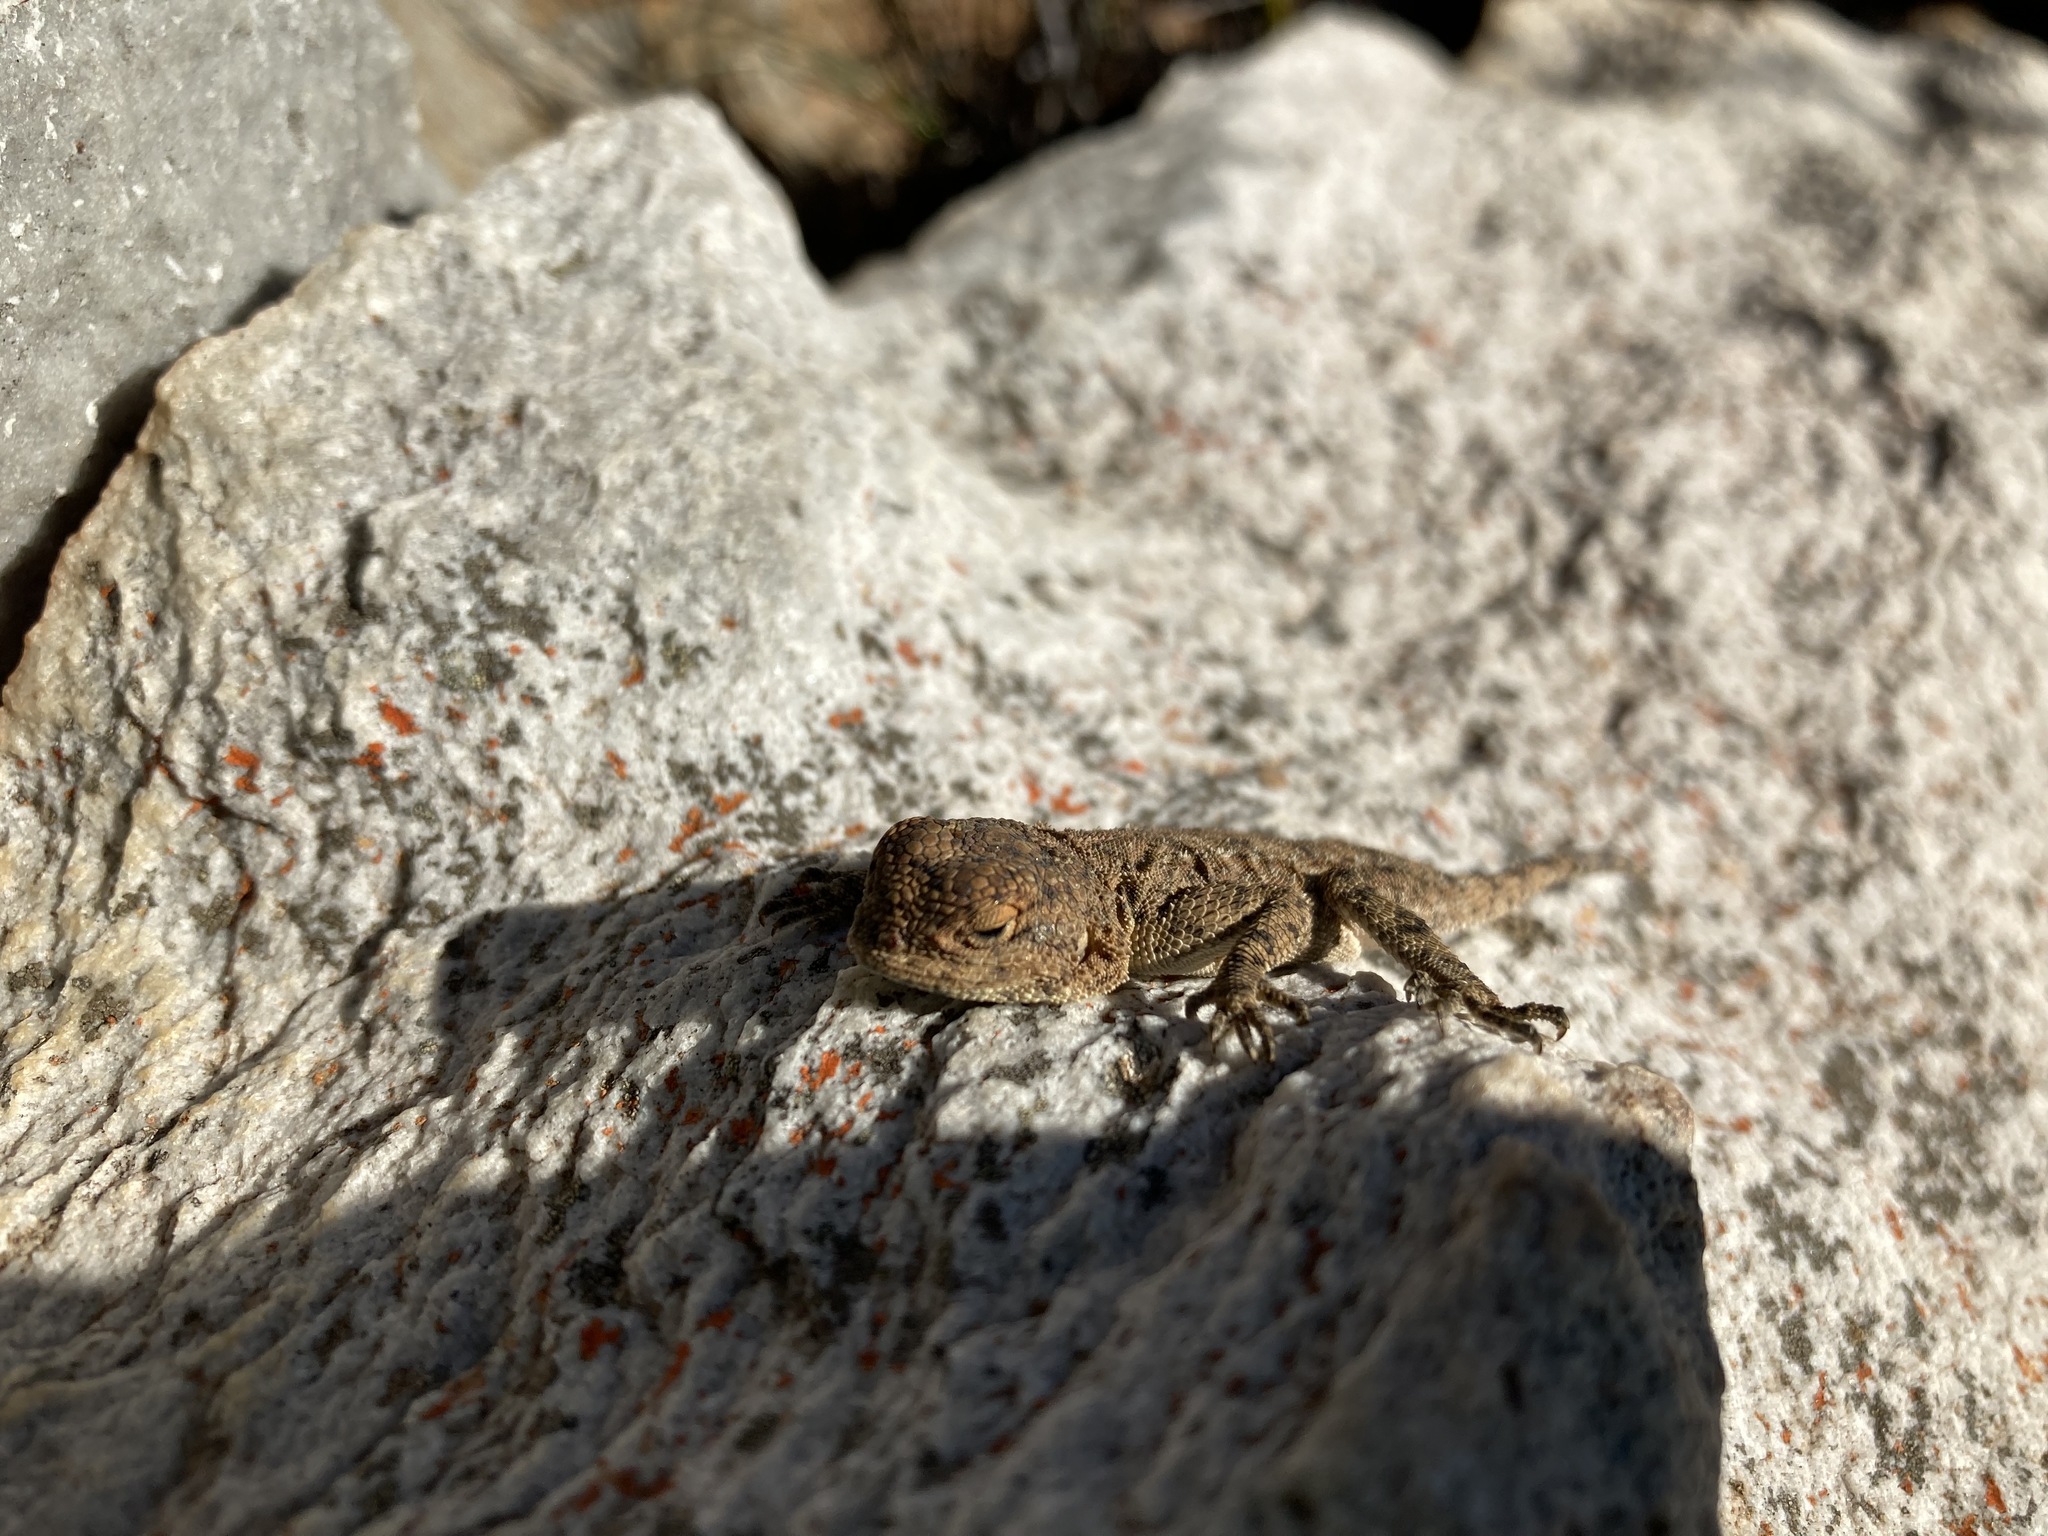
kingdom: Animalia
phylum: Chordata
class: Squamata
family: Agamidae
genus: Agama
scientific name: Agama atra
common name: Southern african rock agama
